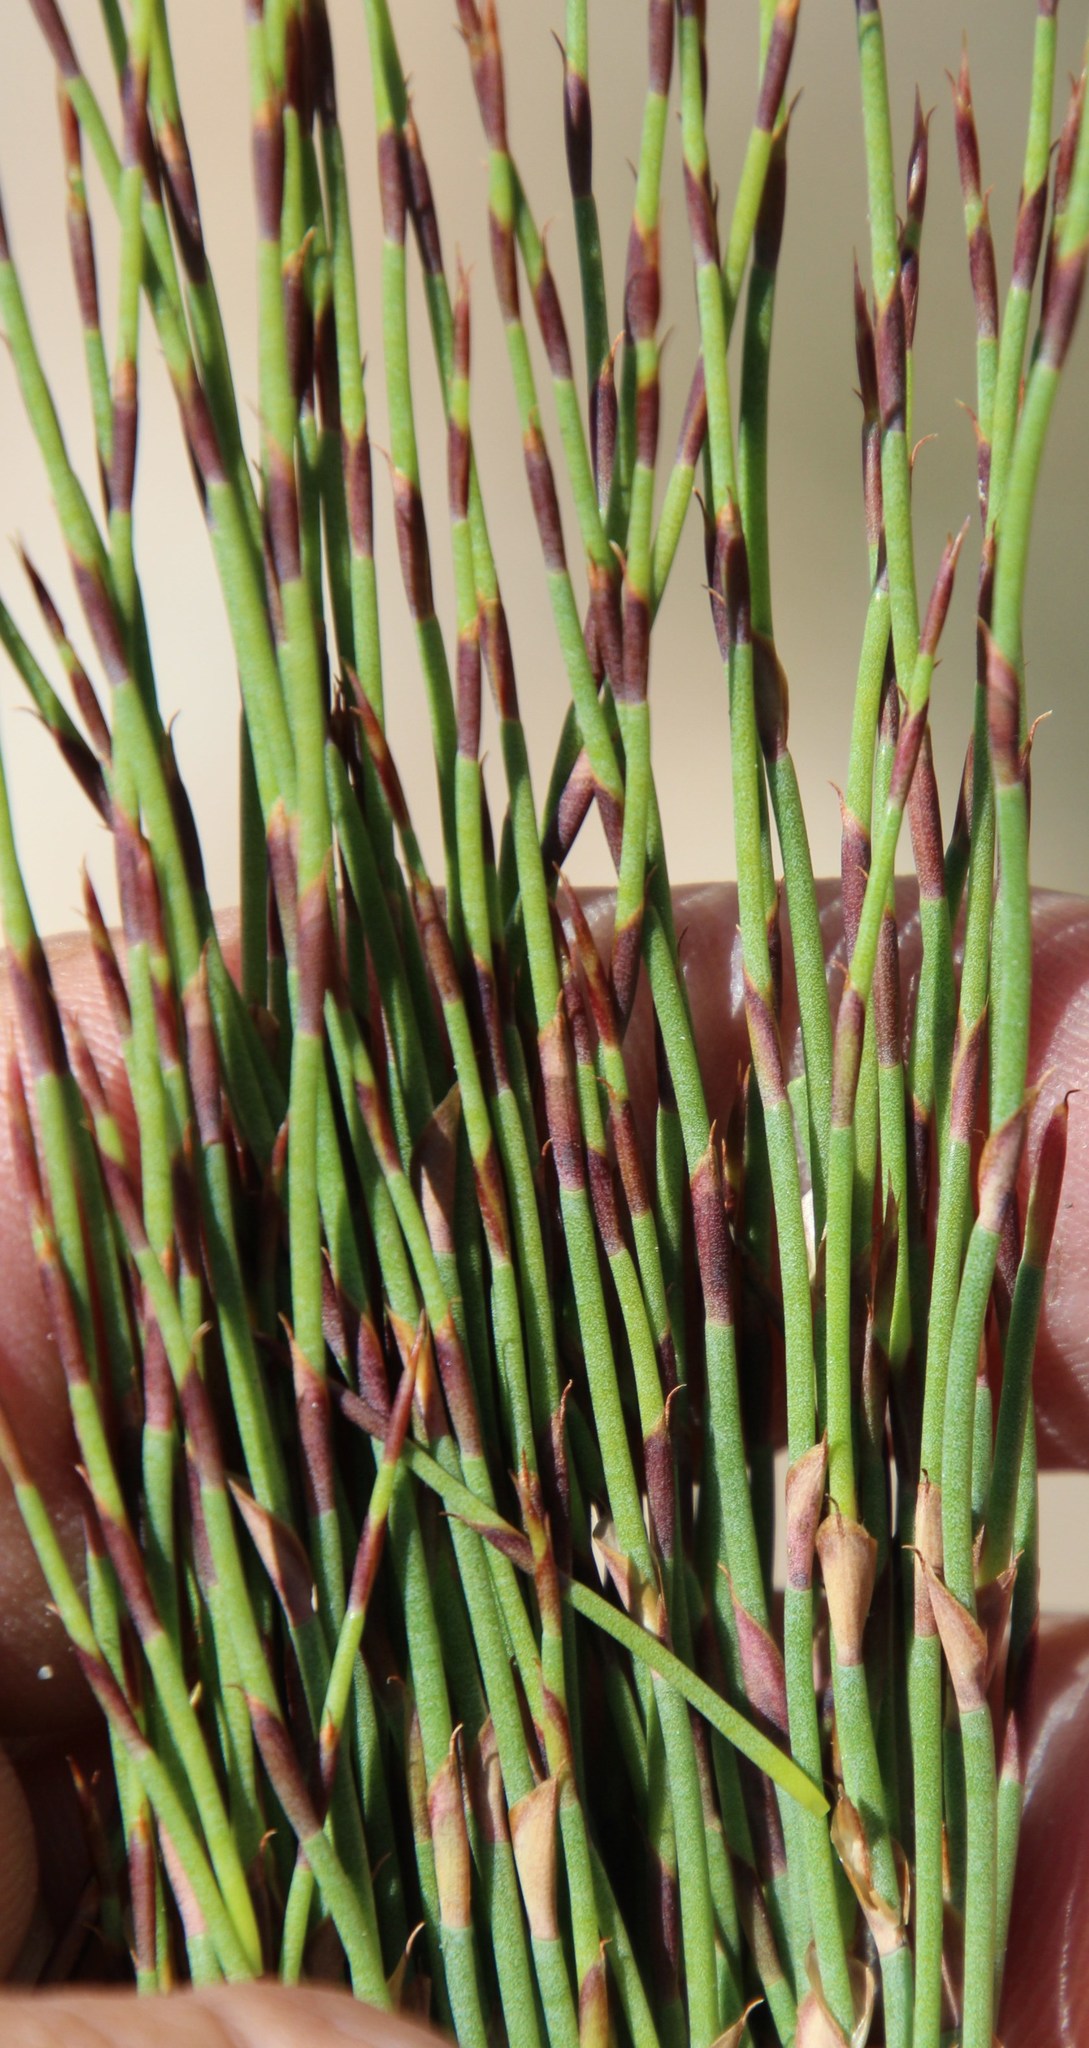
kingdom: Plantae
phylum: Tracheophyta
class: Liliopsida
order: Poales
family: Restionaceae
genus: Elegia
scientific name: Elegia microcarpa
